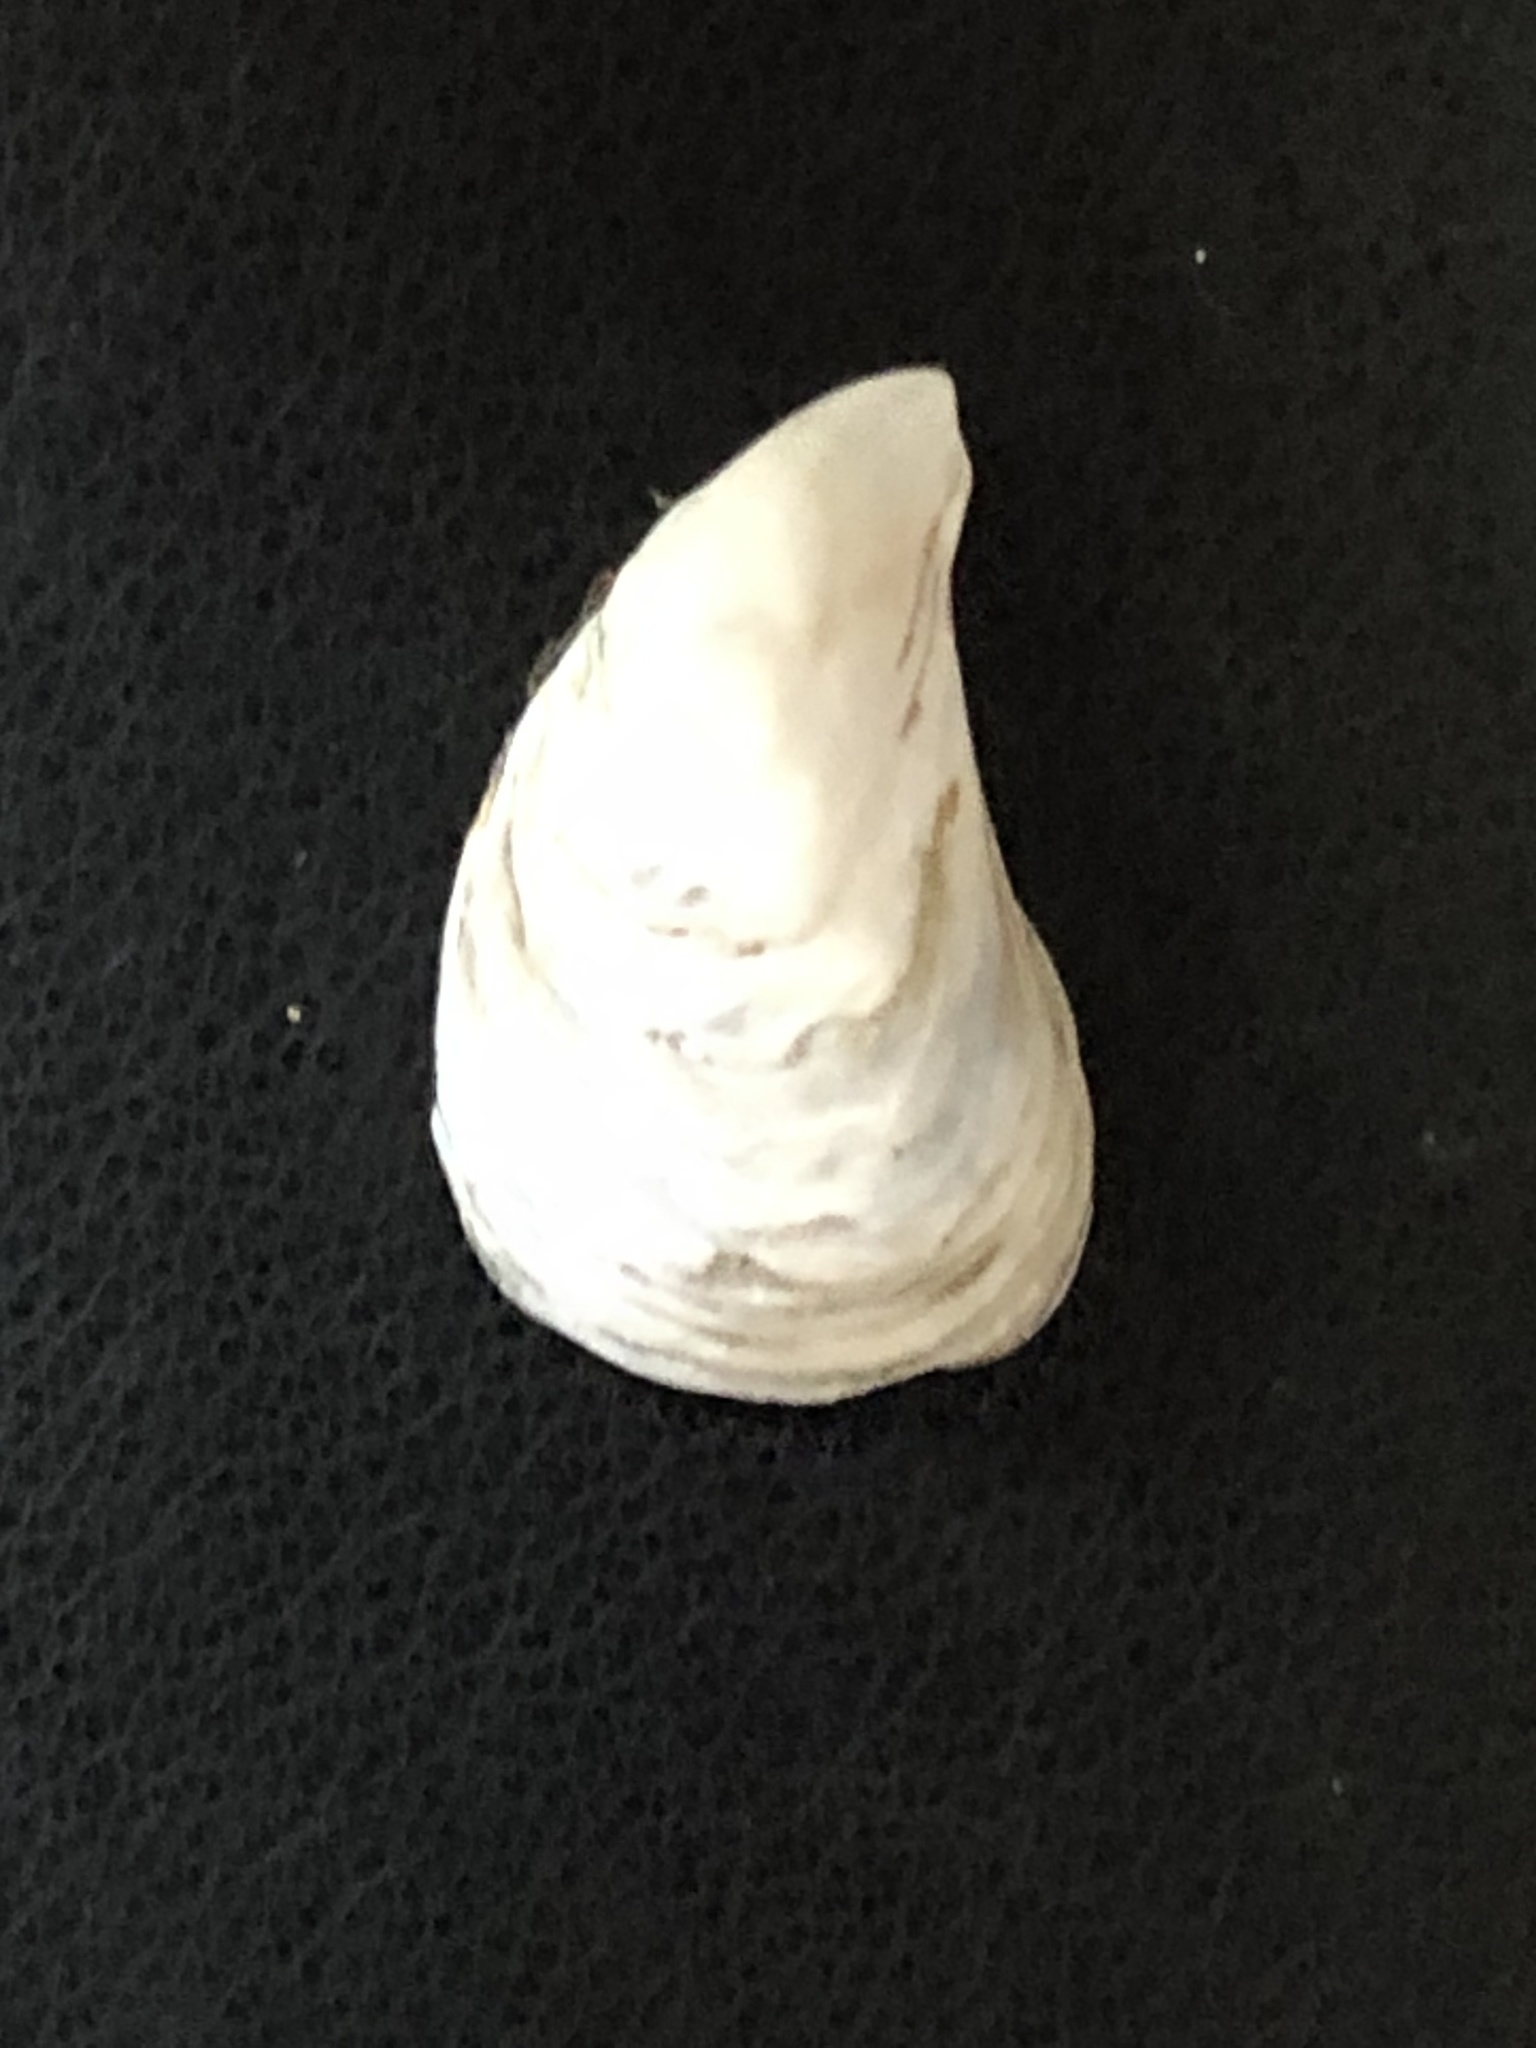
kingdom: Animalia
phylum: Mollusca
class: Bivalvia
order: Myida
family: Dreissenidae
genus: Dreissena
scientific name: Dreissena bugensis
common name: Quagga mussel
